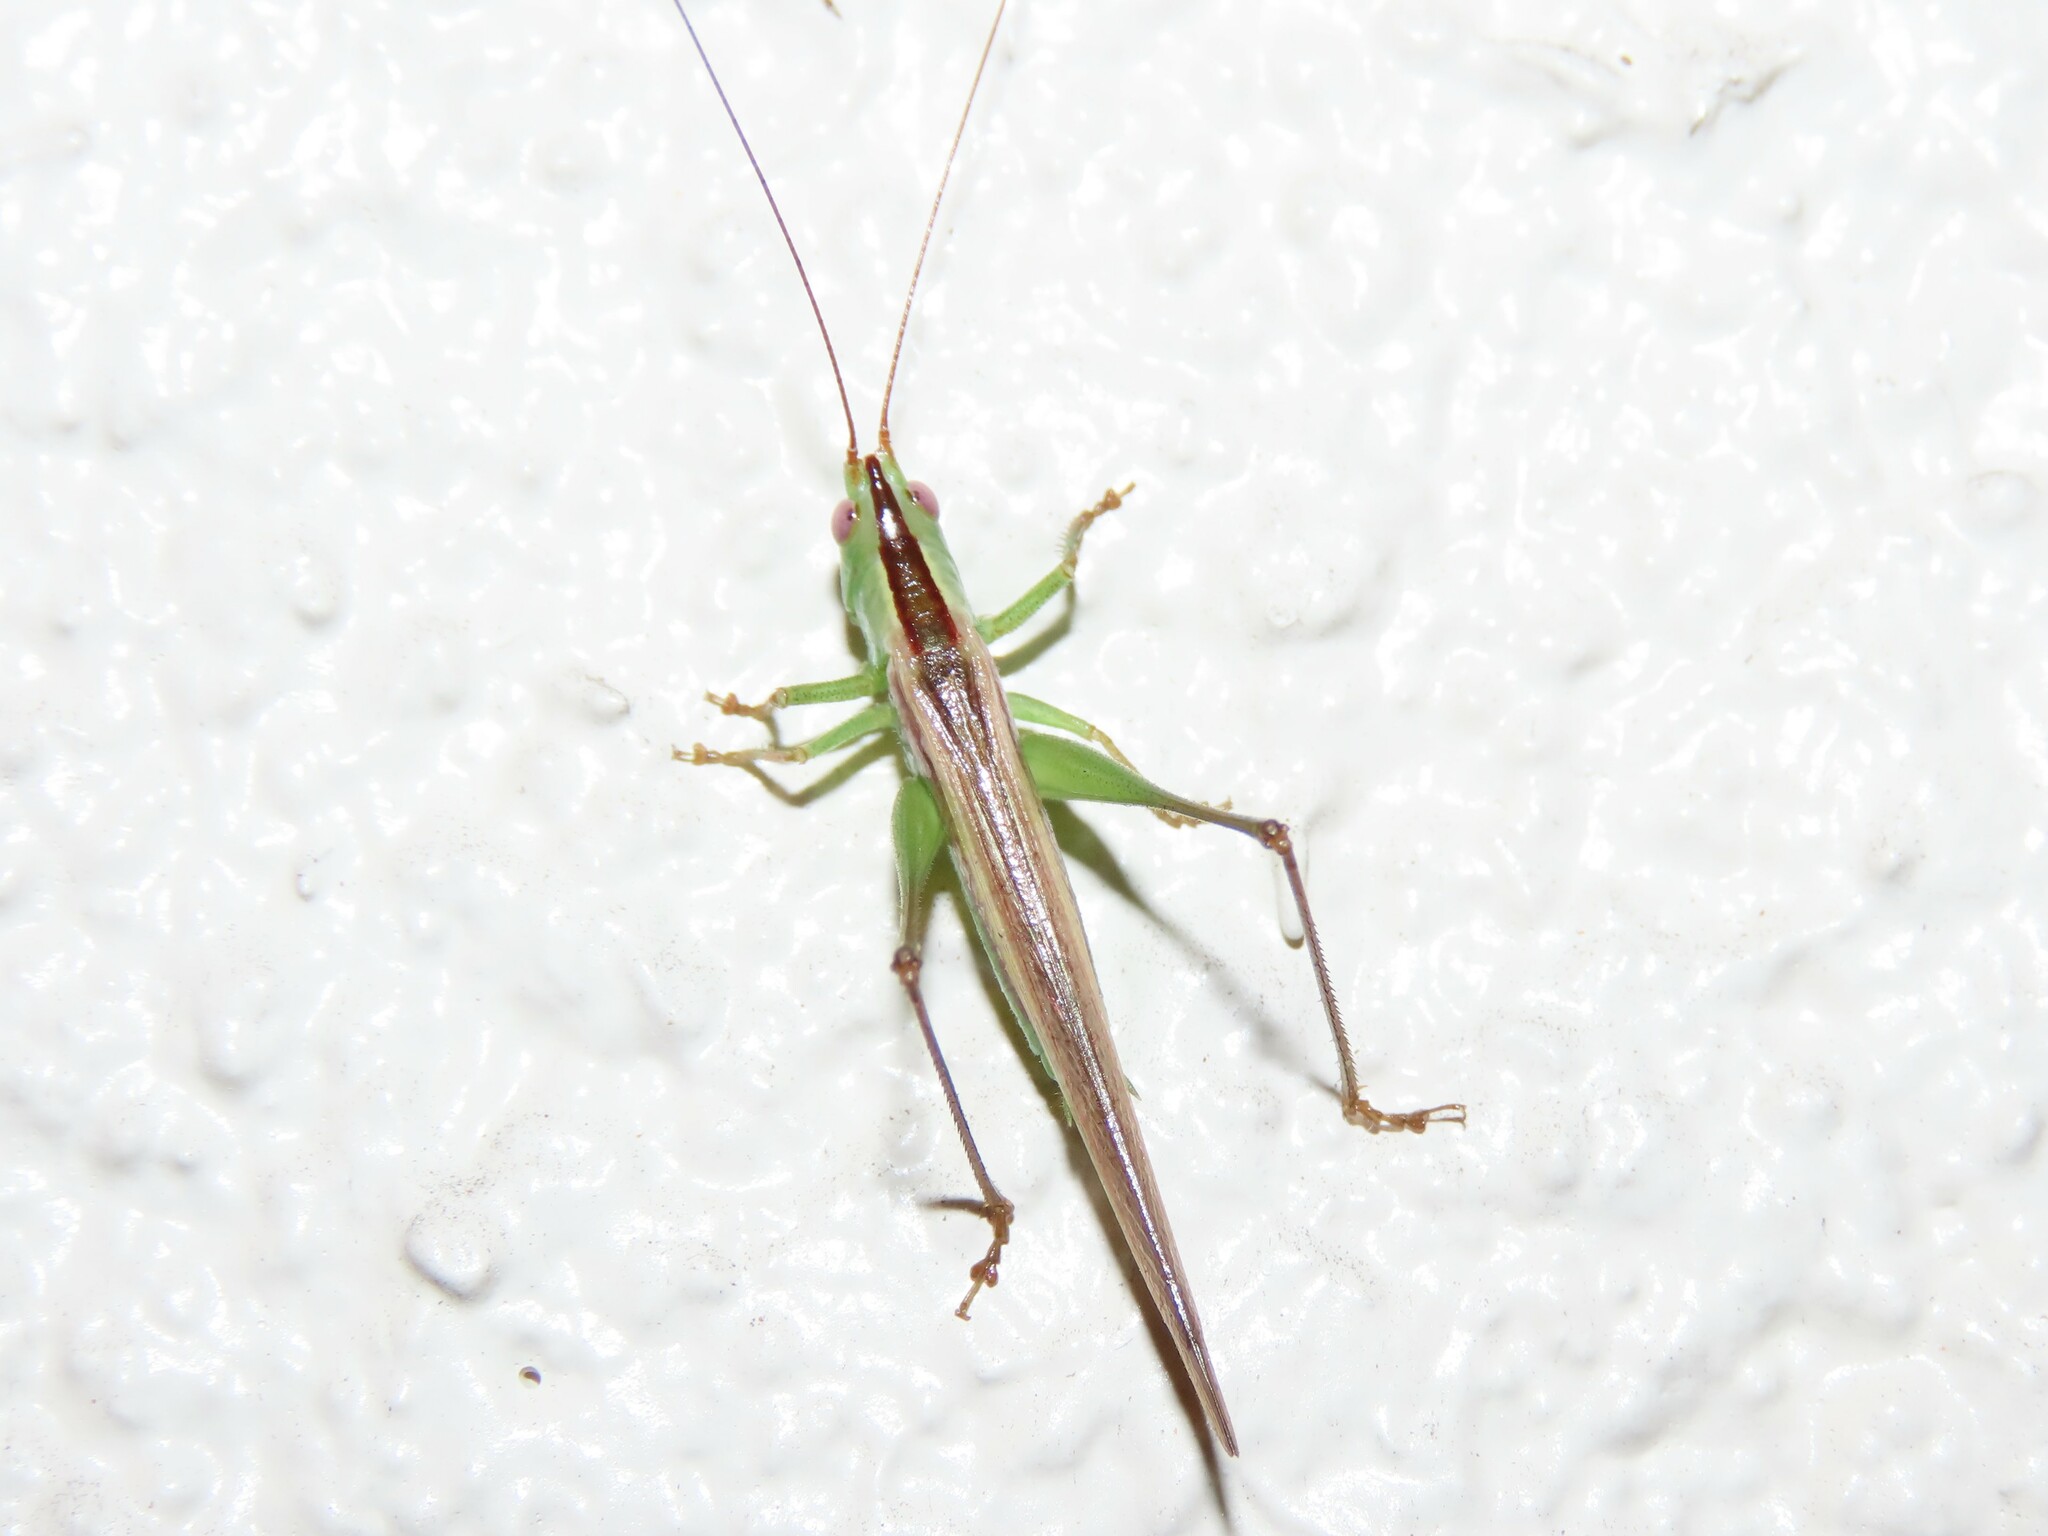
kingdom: Animalia
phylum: Arthropoda
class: Insecta
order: Orthoptera
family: Tettigoniidae
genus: Conocephalus
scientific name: Conocephalus gracillimus
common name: Graceful meadow katydid
